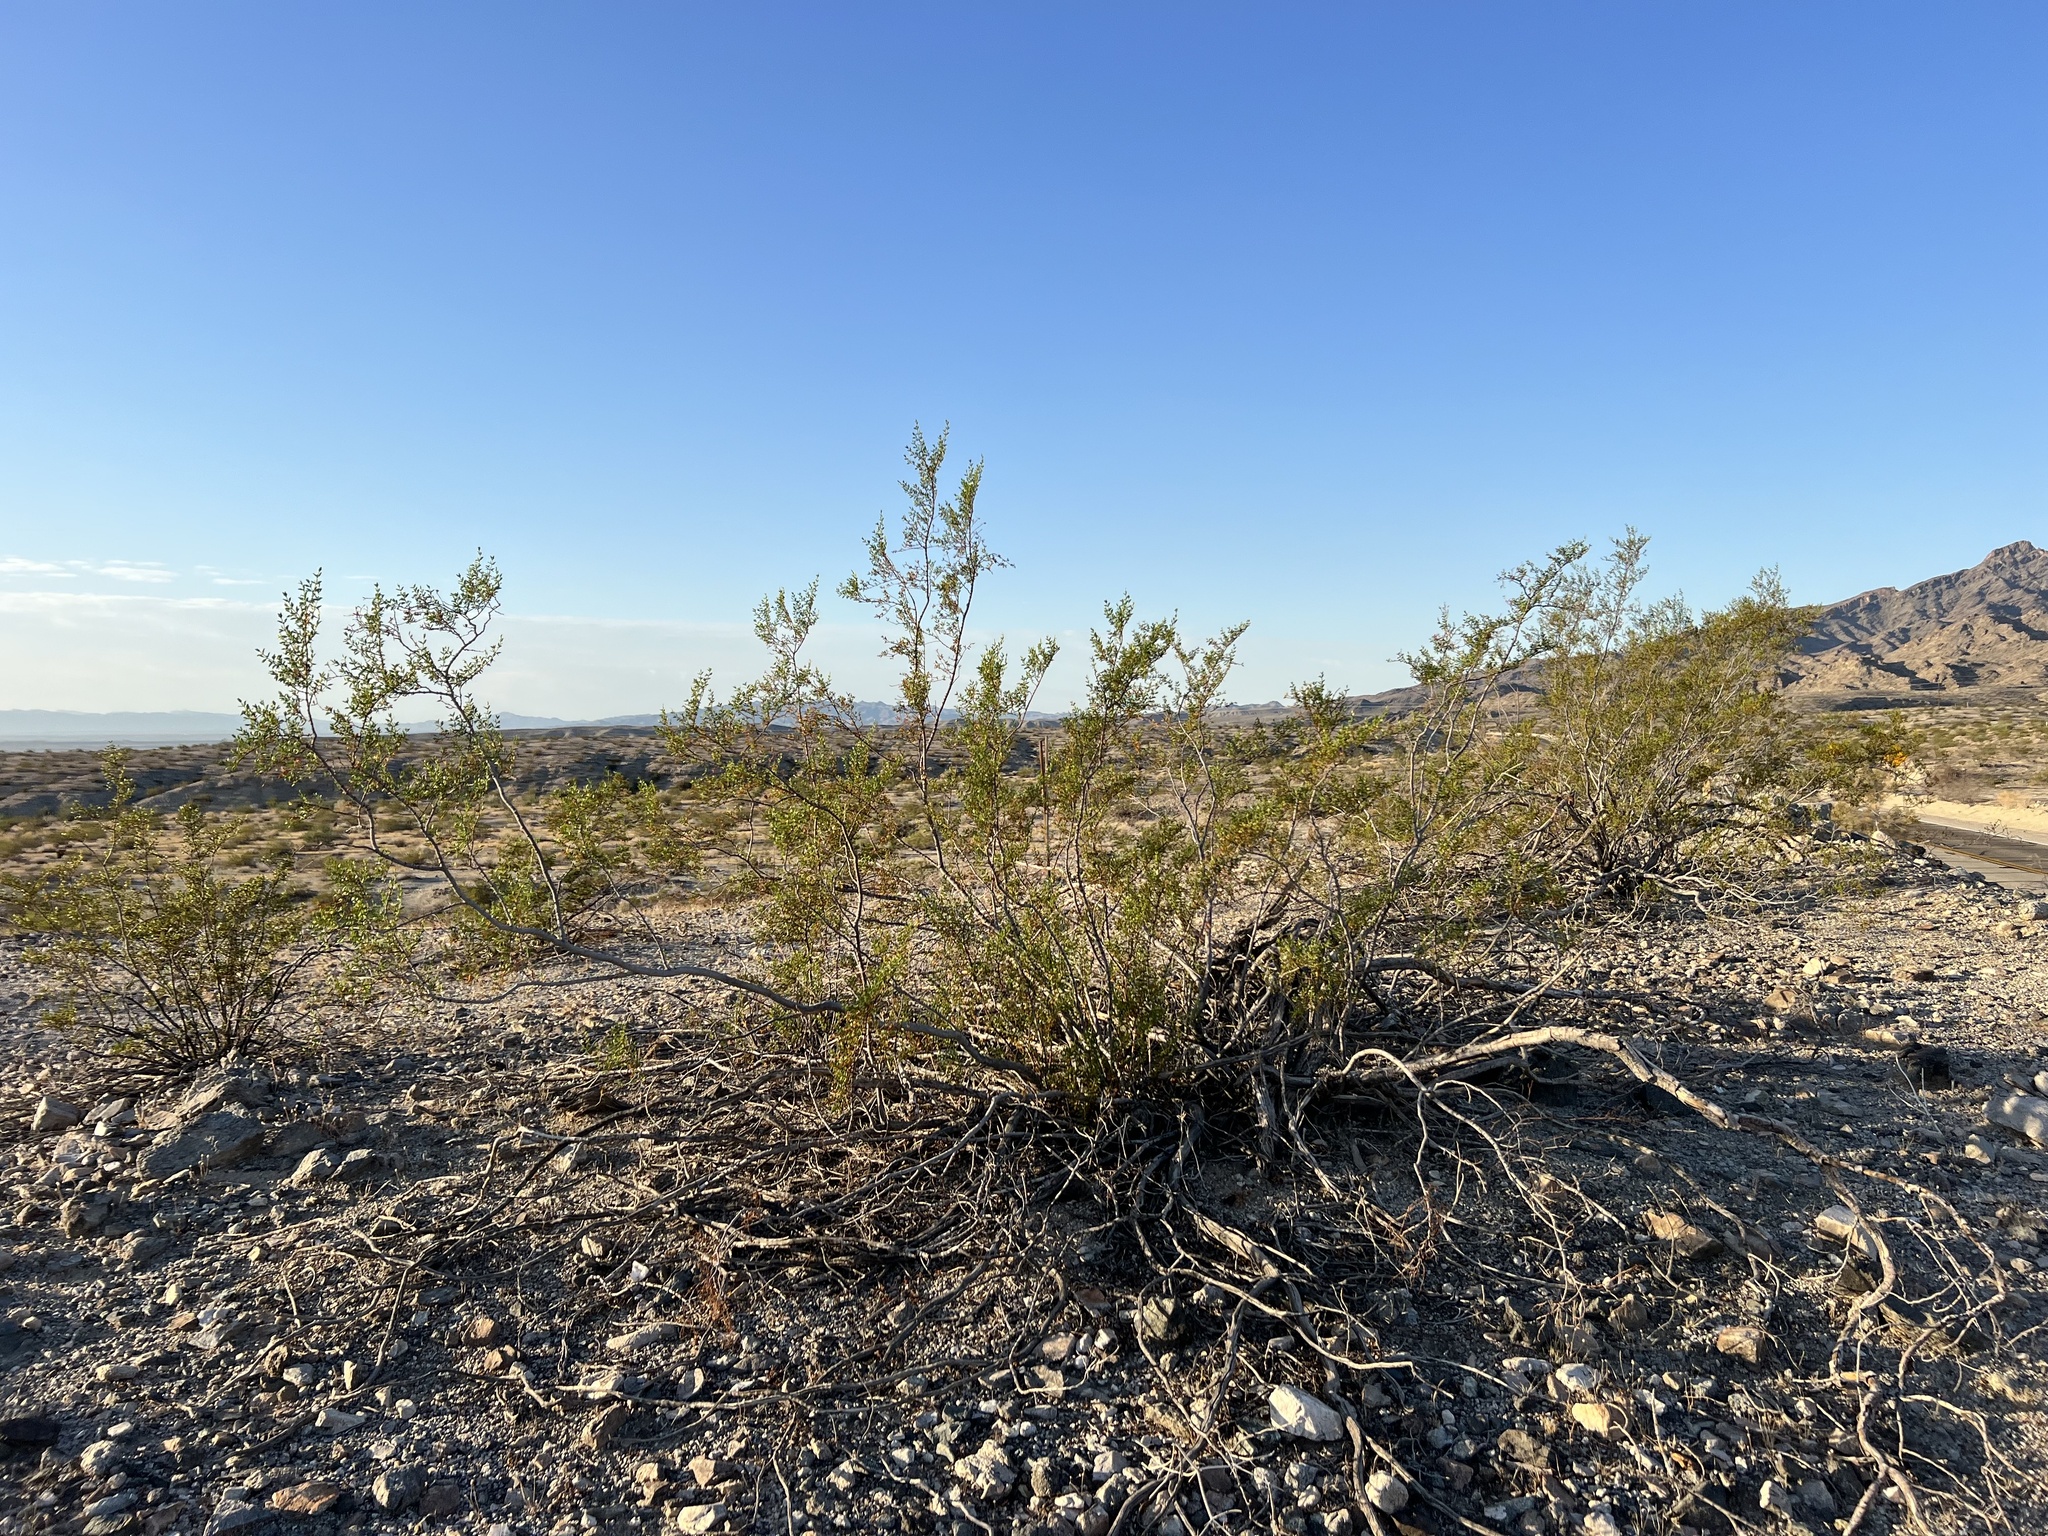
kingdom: Plantae
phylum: Tracheophyta
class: Magnoliopsida
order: Zygophyllales
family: Zygophyllaceae
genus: Larrea
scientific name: Larrea tridentata
